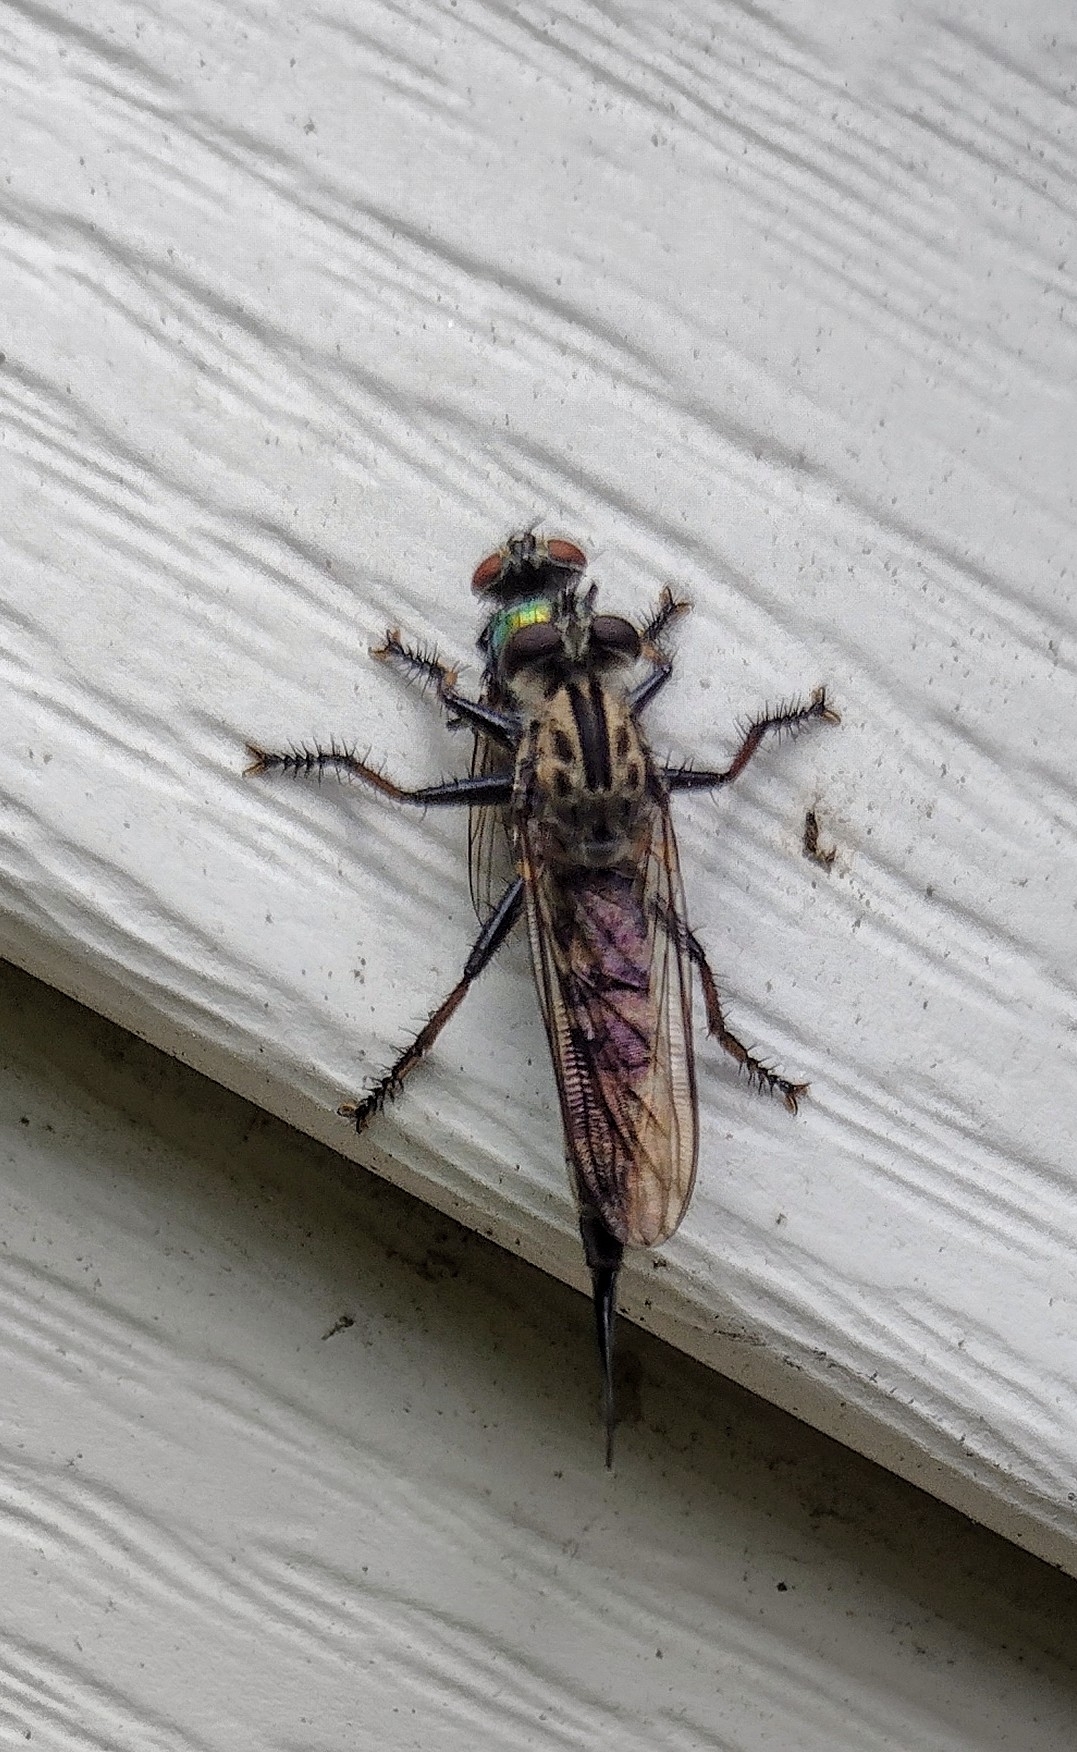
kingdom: Animalia
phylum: Arthropoda
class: Insecta
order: Diptera
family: Asilidae
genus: Efferia
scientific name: Efferia aestuans
